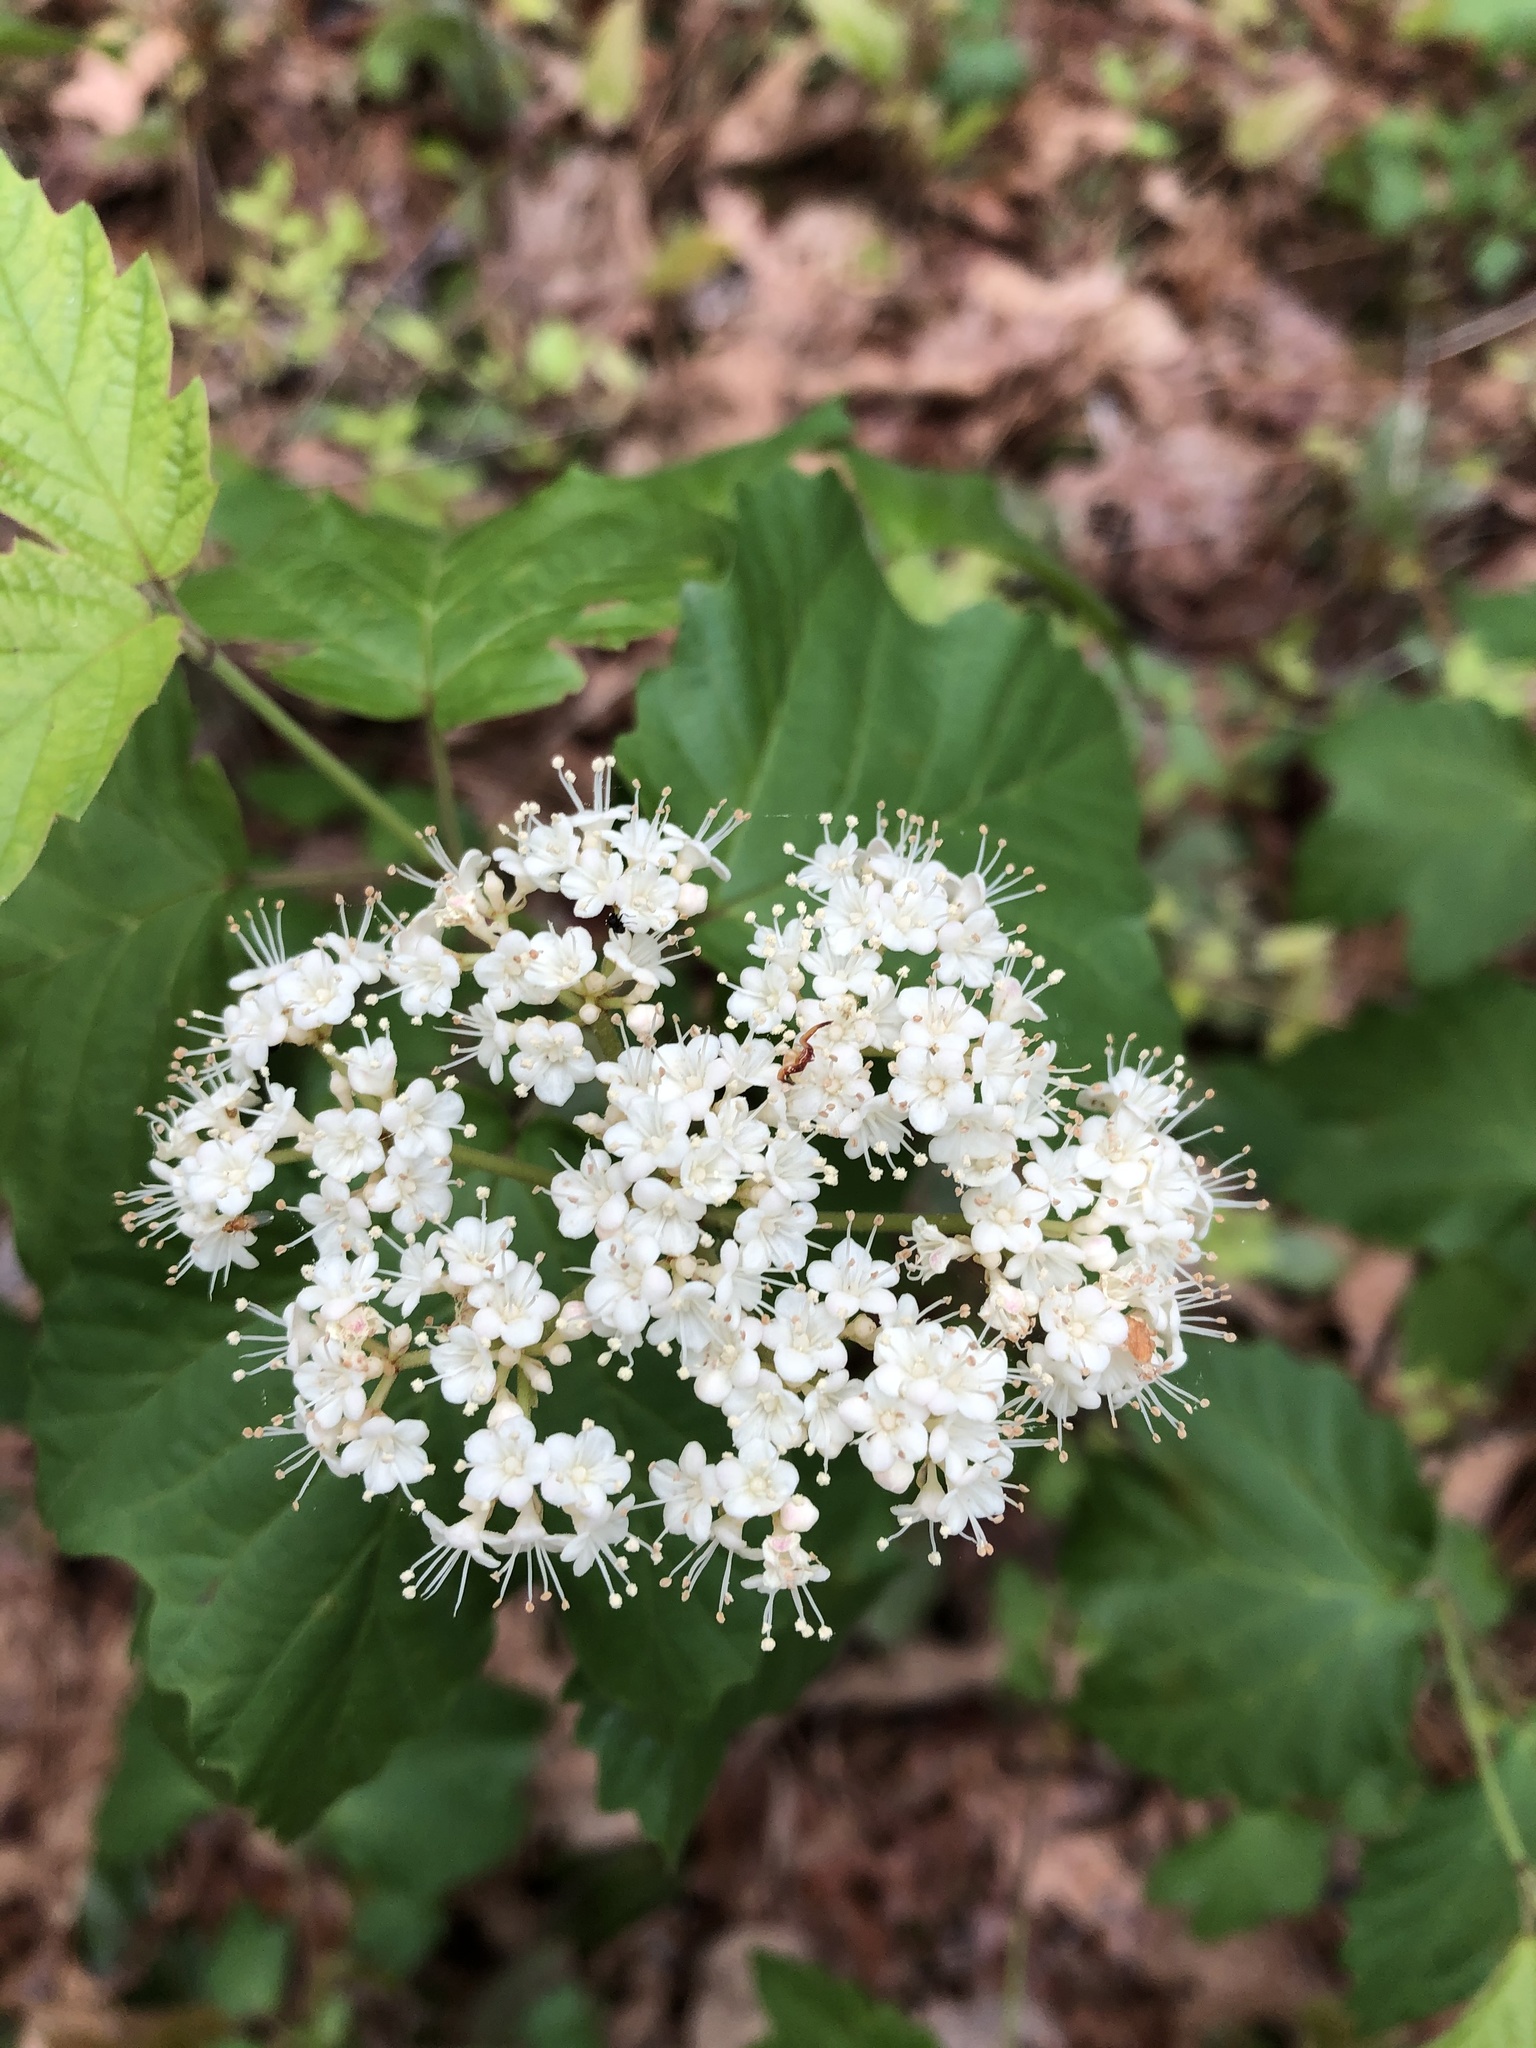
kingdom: Plantae
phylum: Tracheophyta
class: Magnoliopsida
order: Dipsacales
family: Viburnaceae
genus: Viburnum
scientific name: Viburnum acerifolium
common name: Dockmackie
